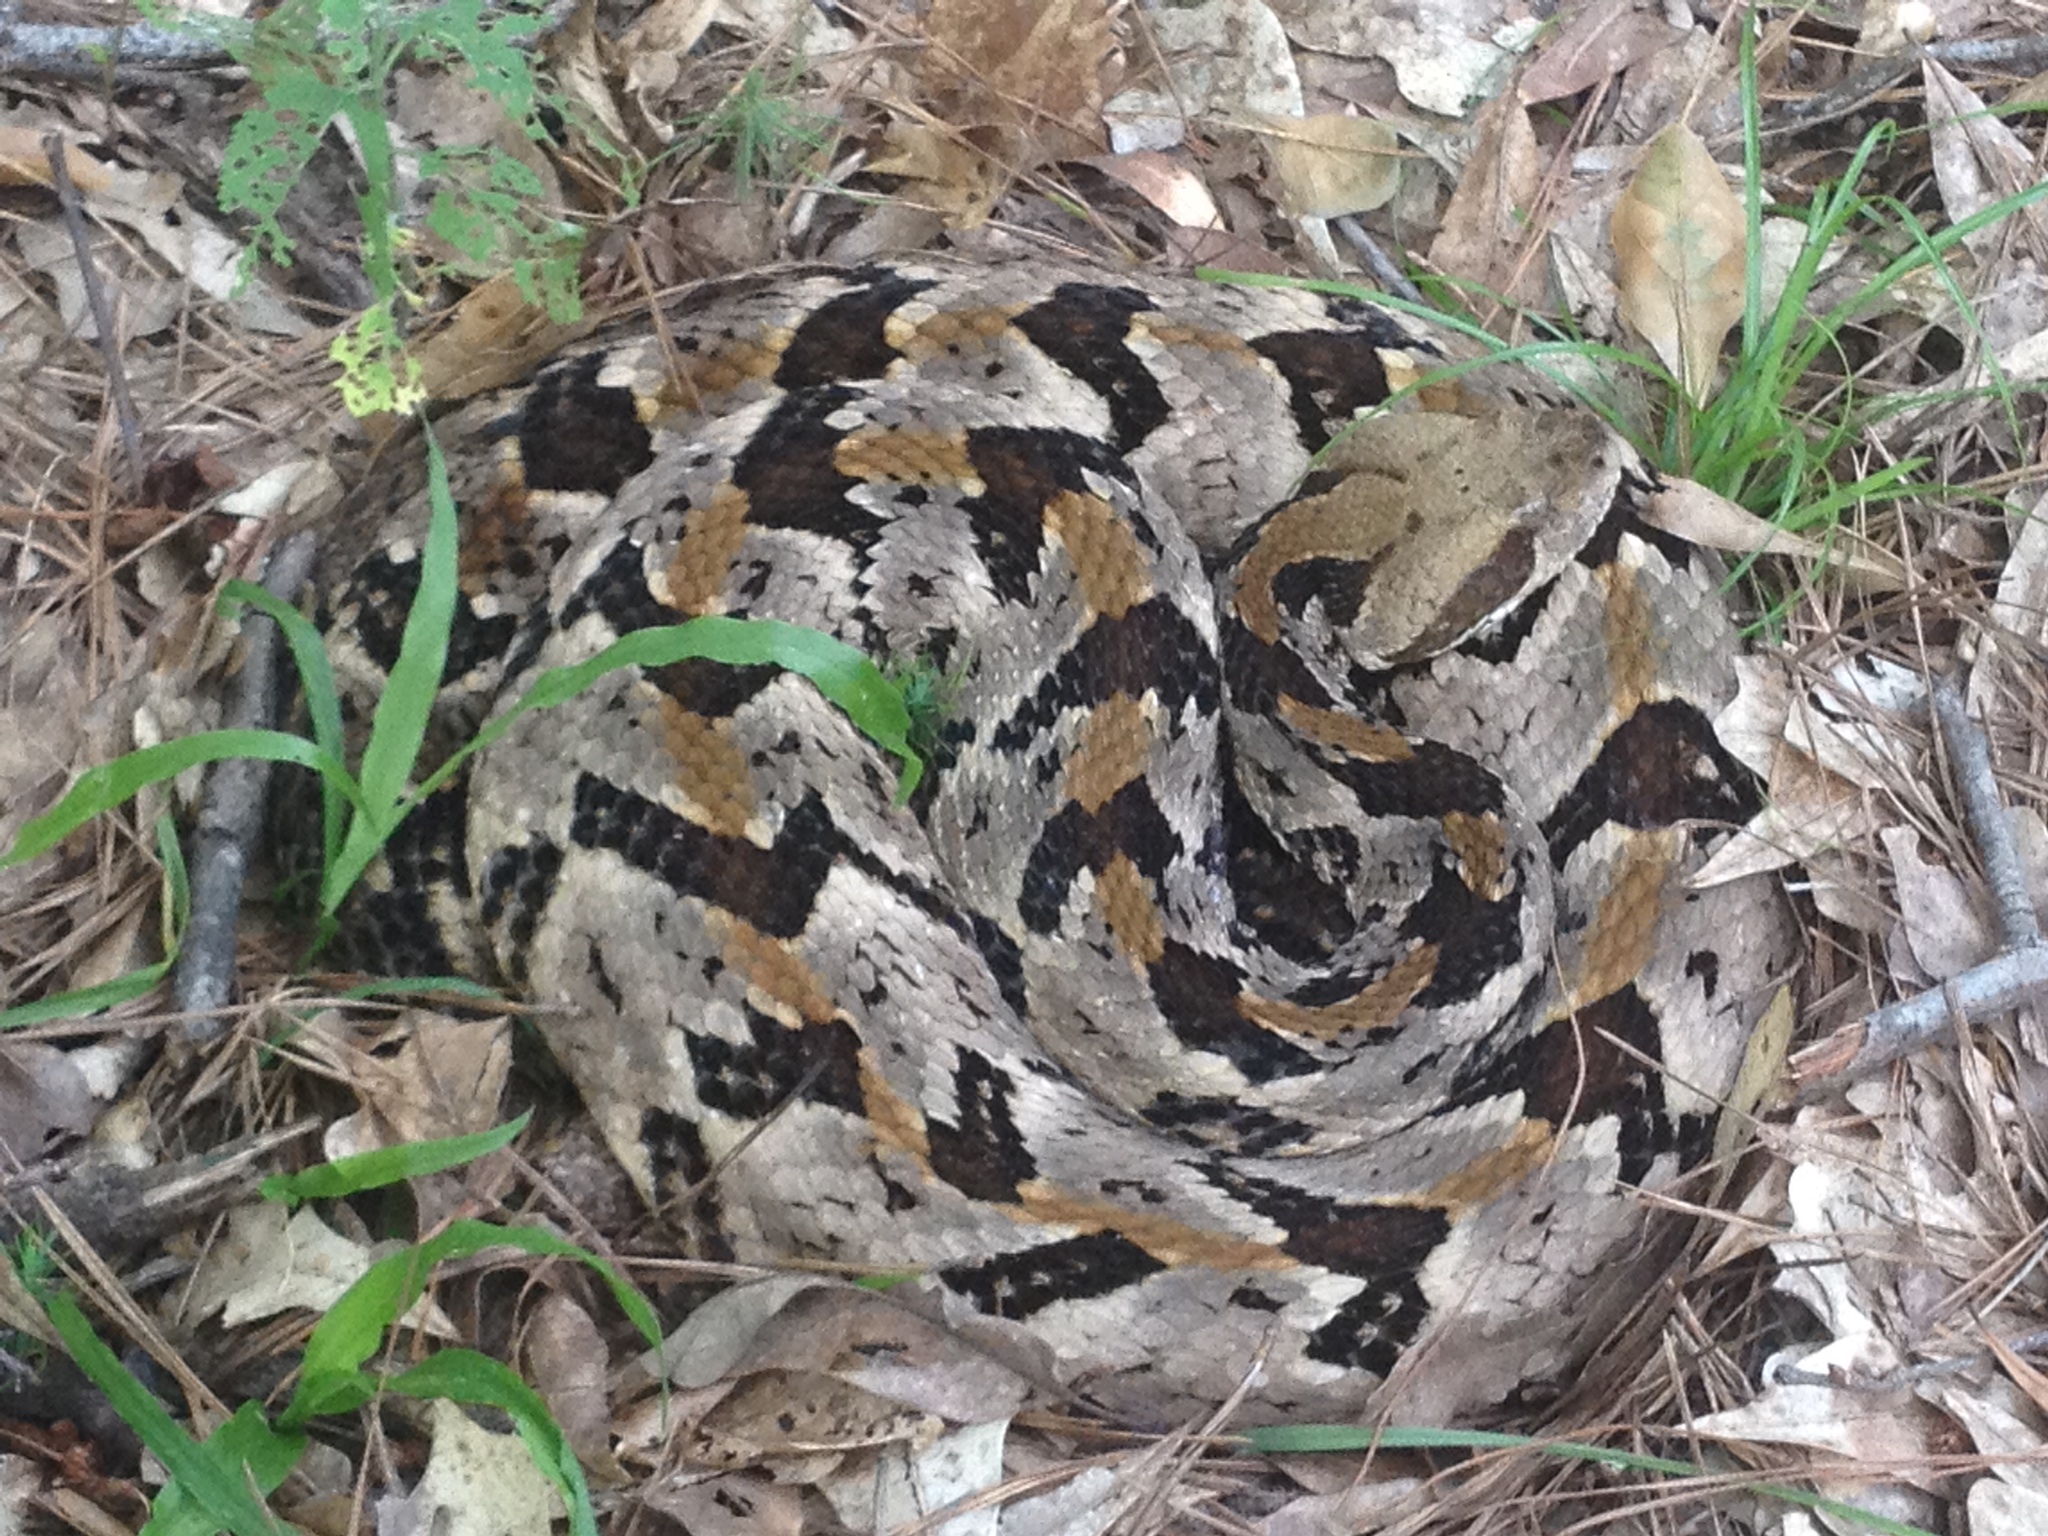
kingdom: Animalia
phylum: Chordata
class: Squamata
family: Viperidae
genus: Crotalus
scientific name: Crotalus horridus
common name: Timber rattlesnake
